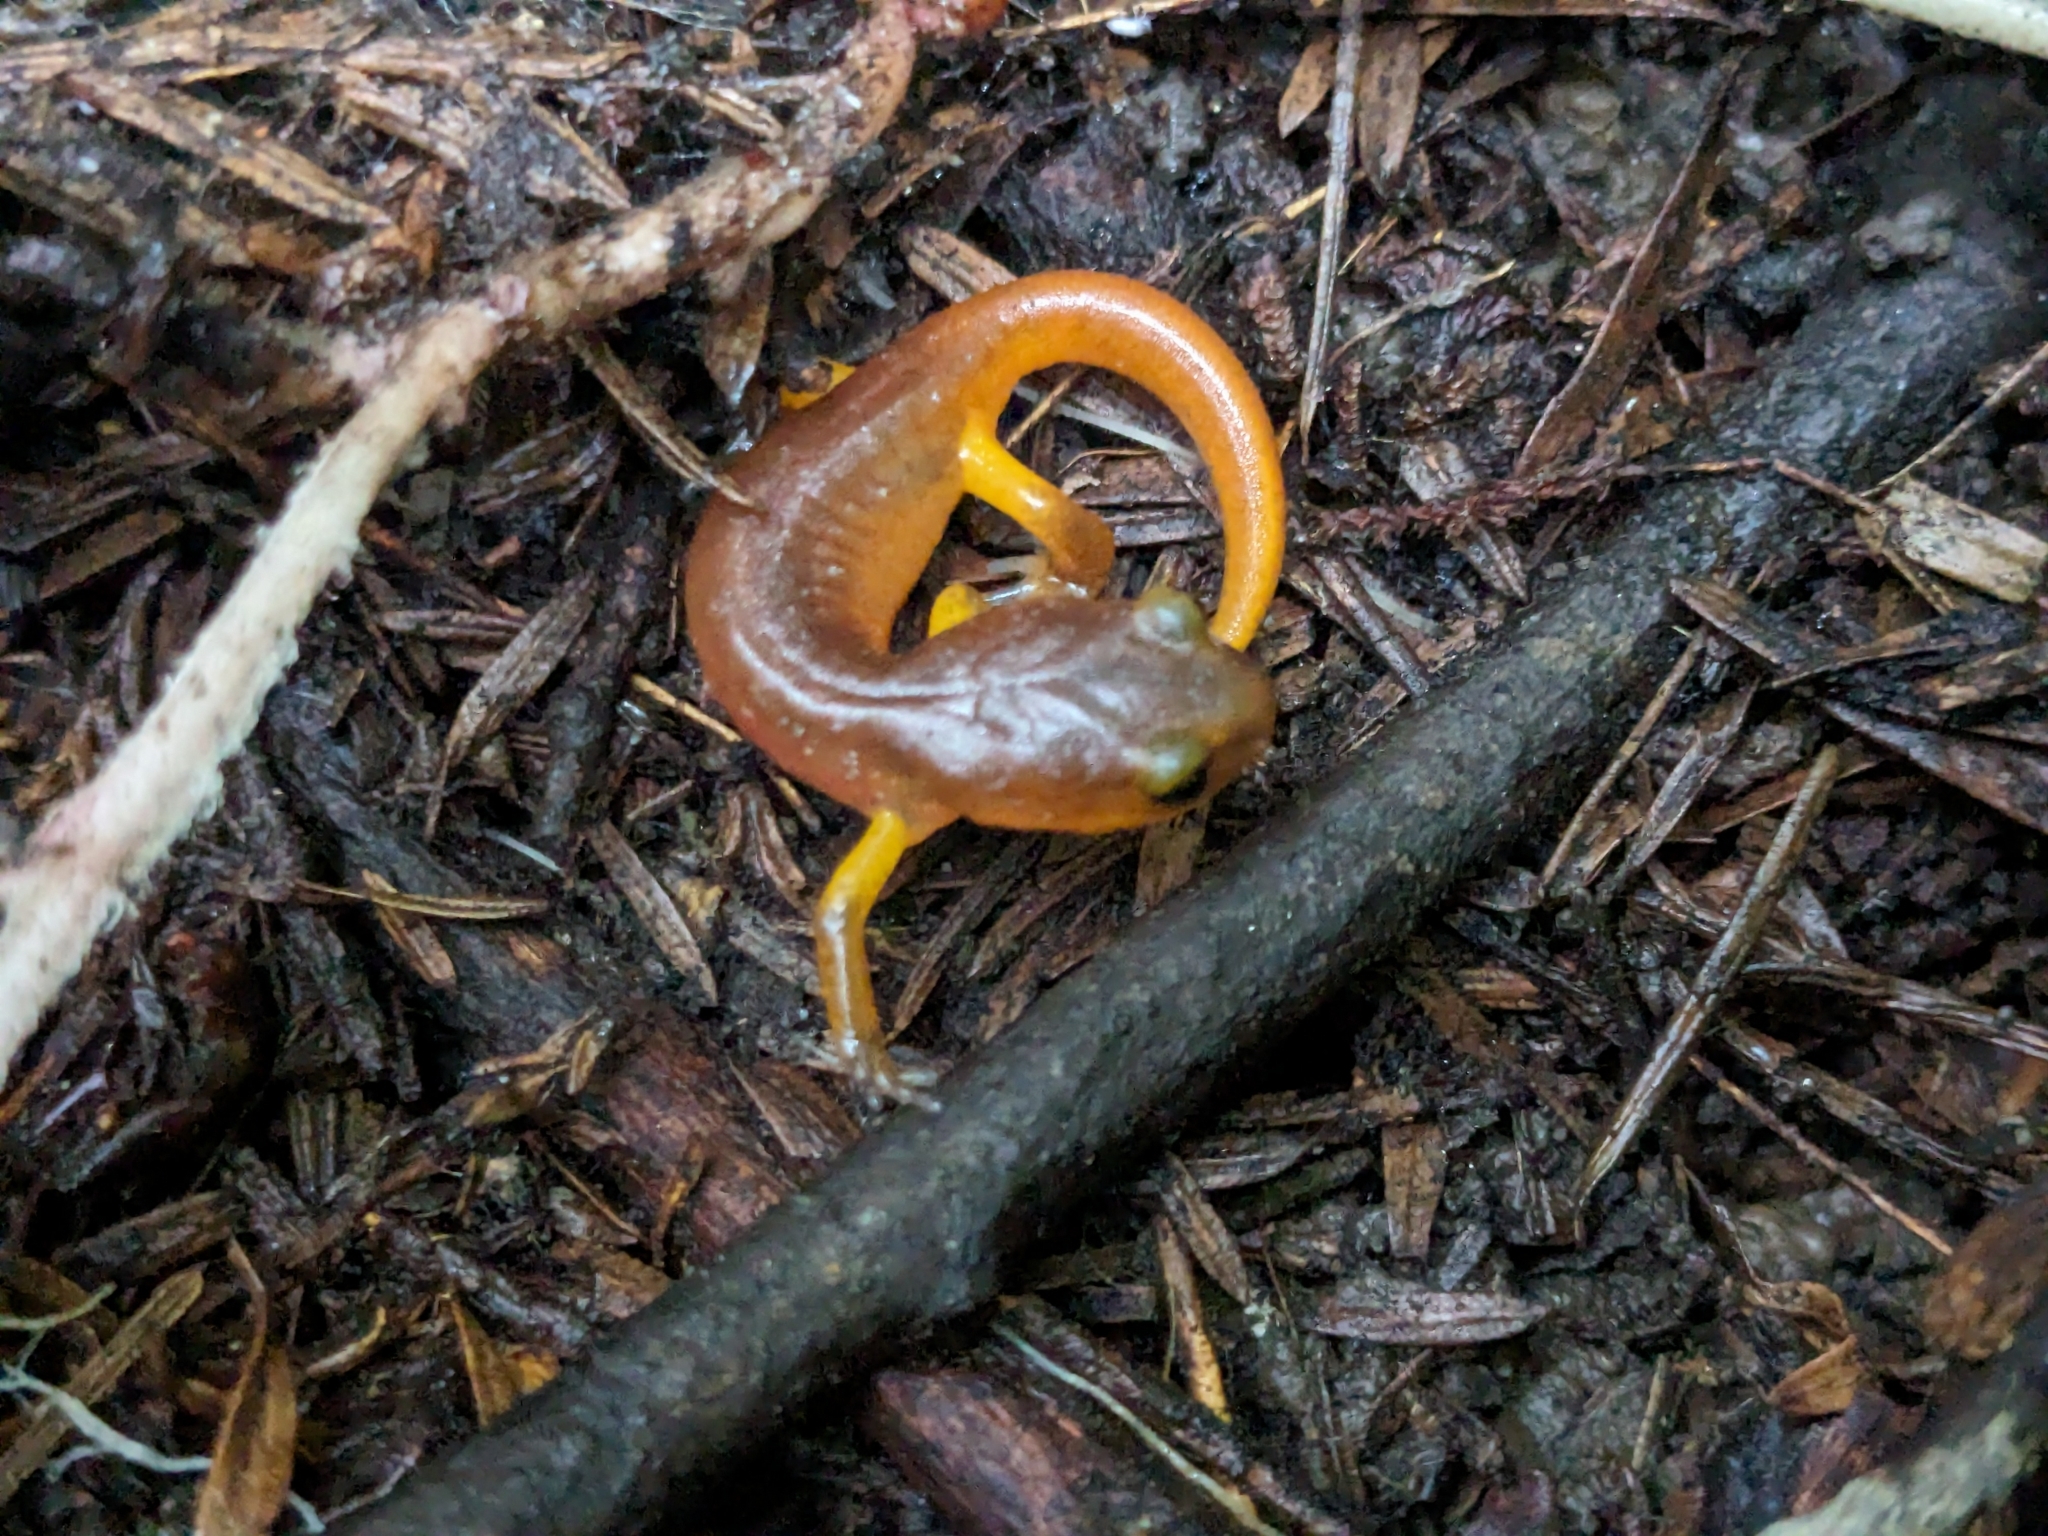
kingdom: Animalia
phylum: Chordata
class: Amphibia
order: Caudata
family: Plethodontidae
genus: Ensatina
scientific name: Ensatina eschscholtzii
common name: Ensatina
